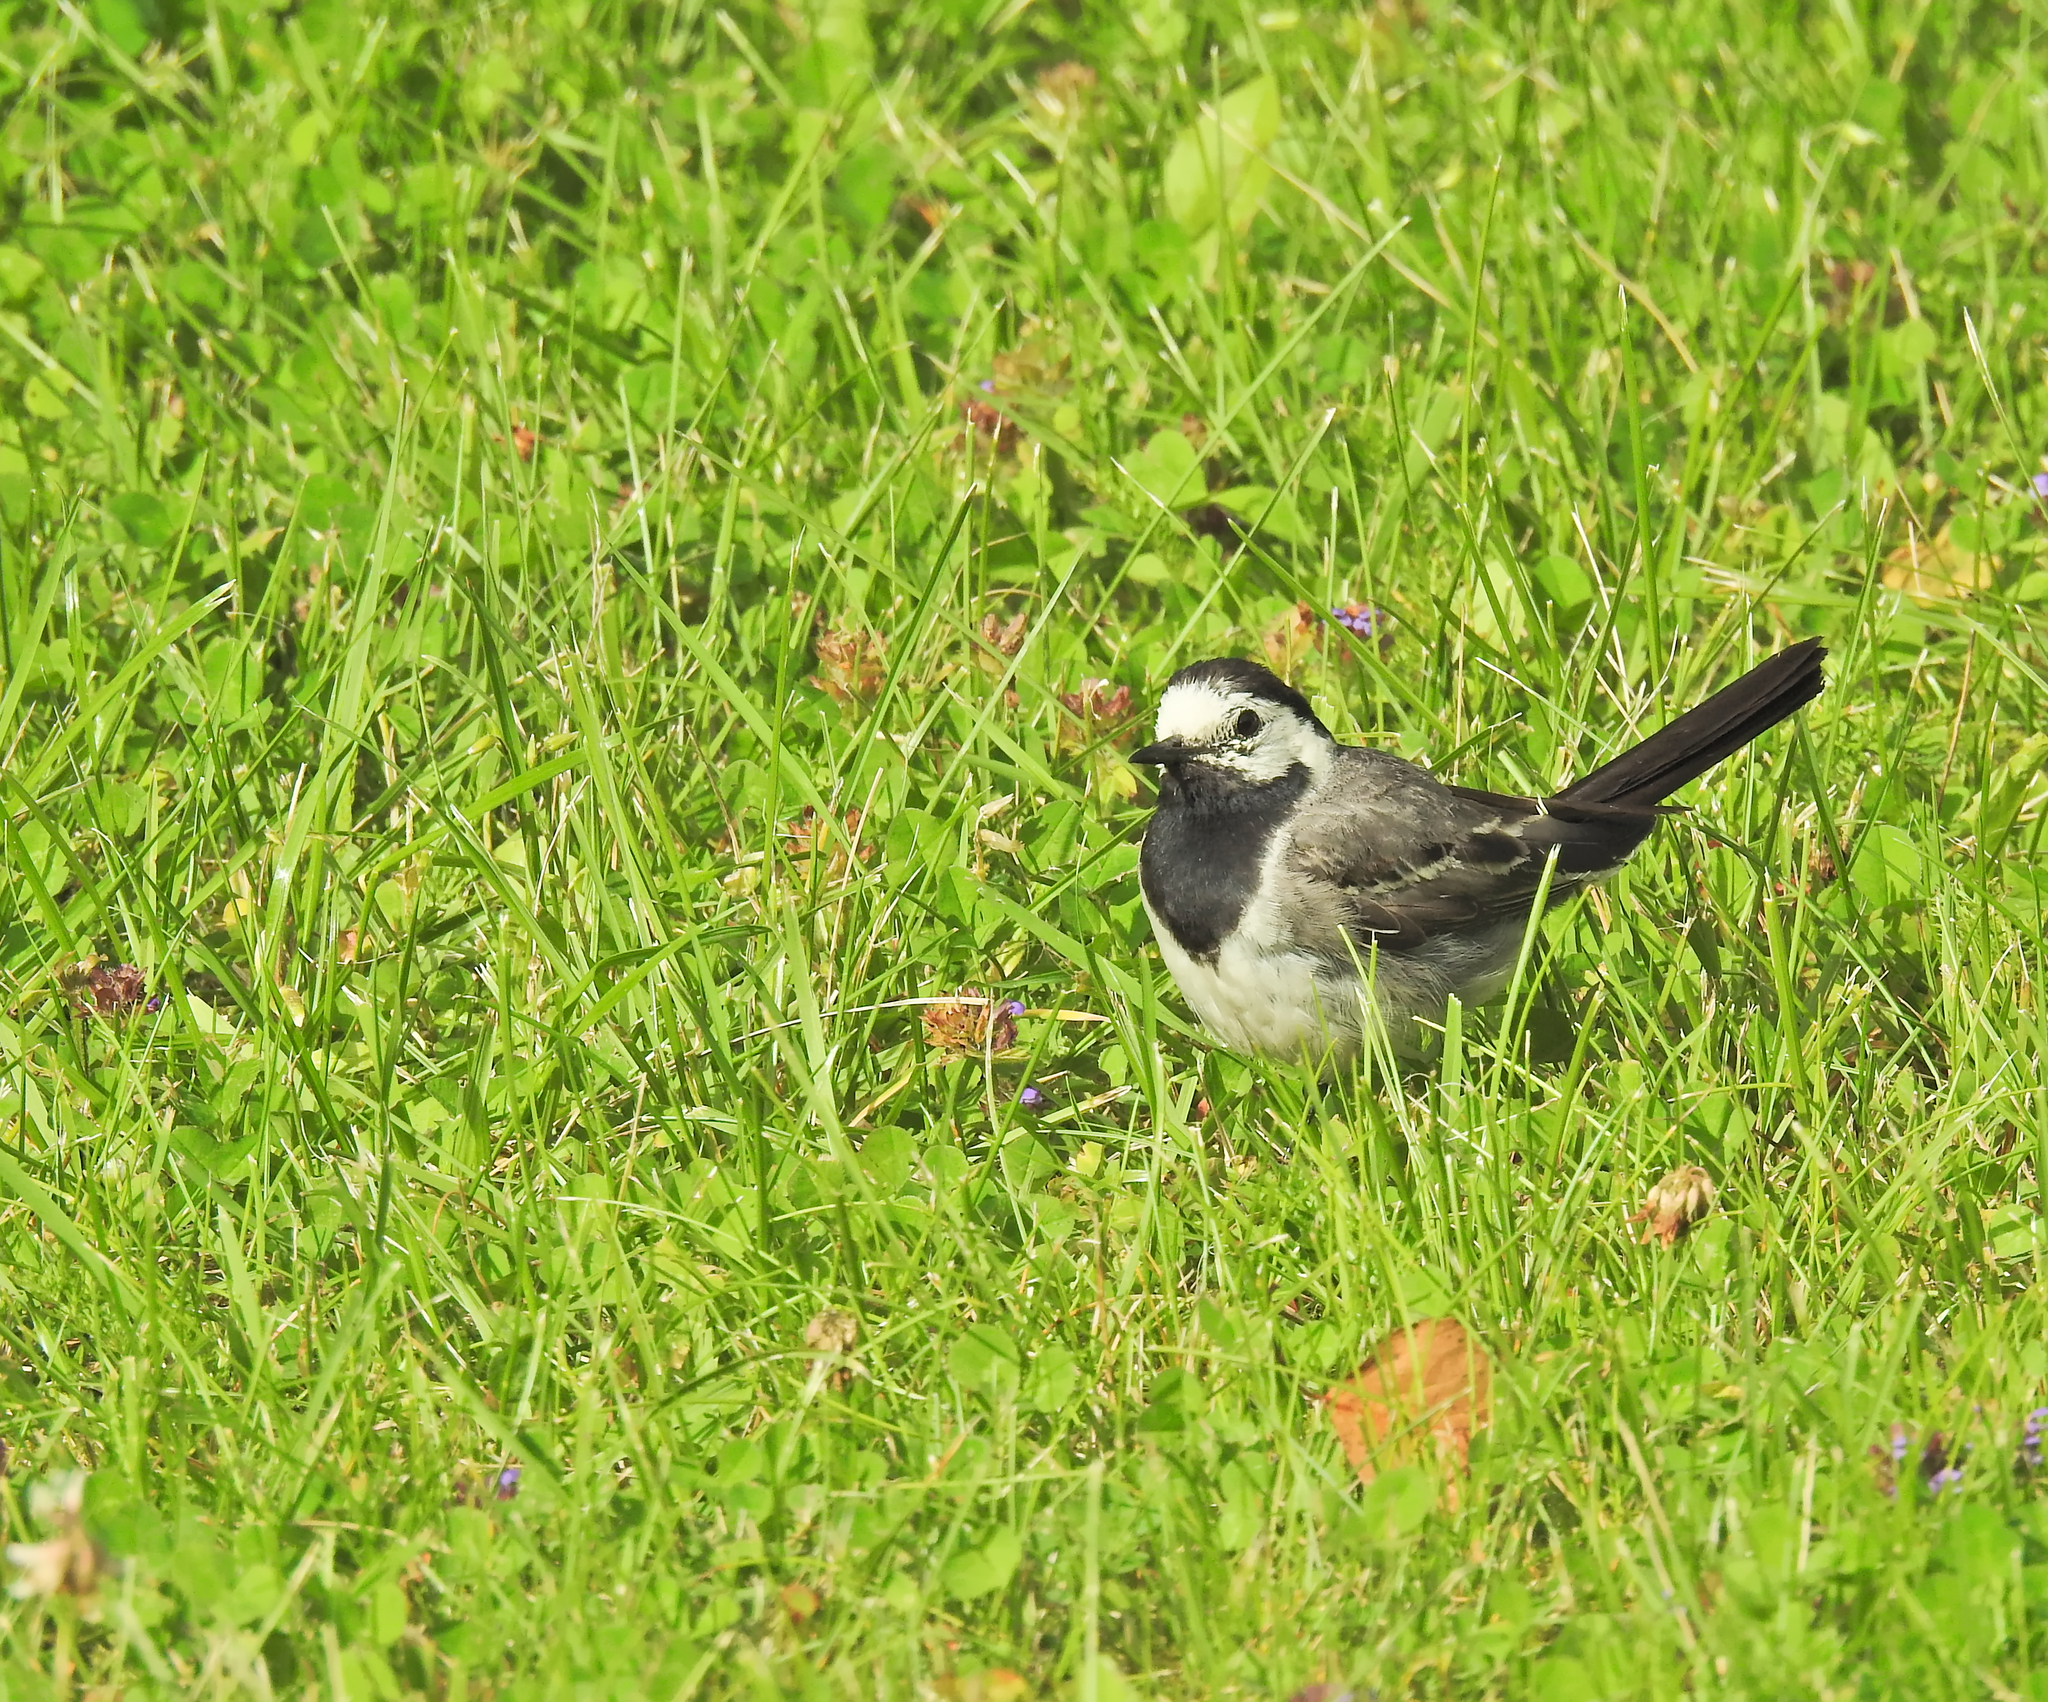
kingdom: Animalia
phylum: Chordata
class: Aves
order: Passeriformes
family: Motacillidae
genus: Motacilla
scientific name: Motacilla alba
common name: White wagtail
